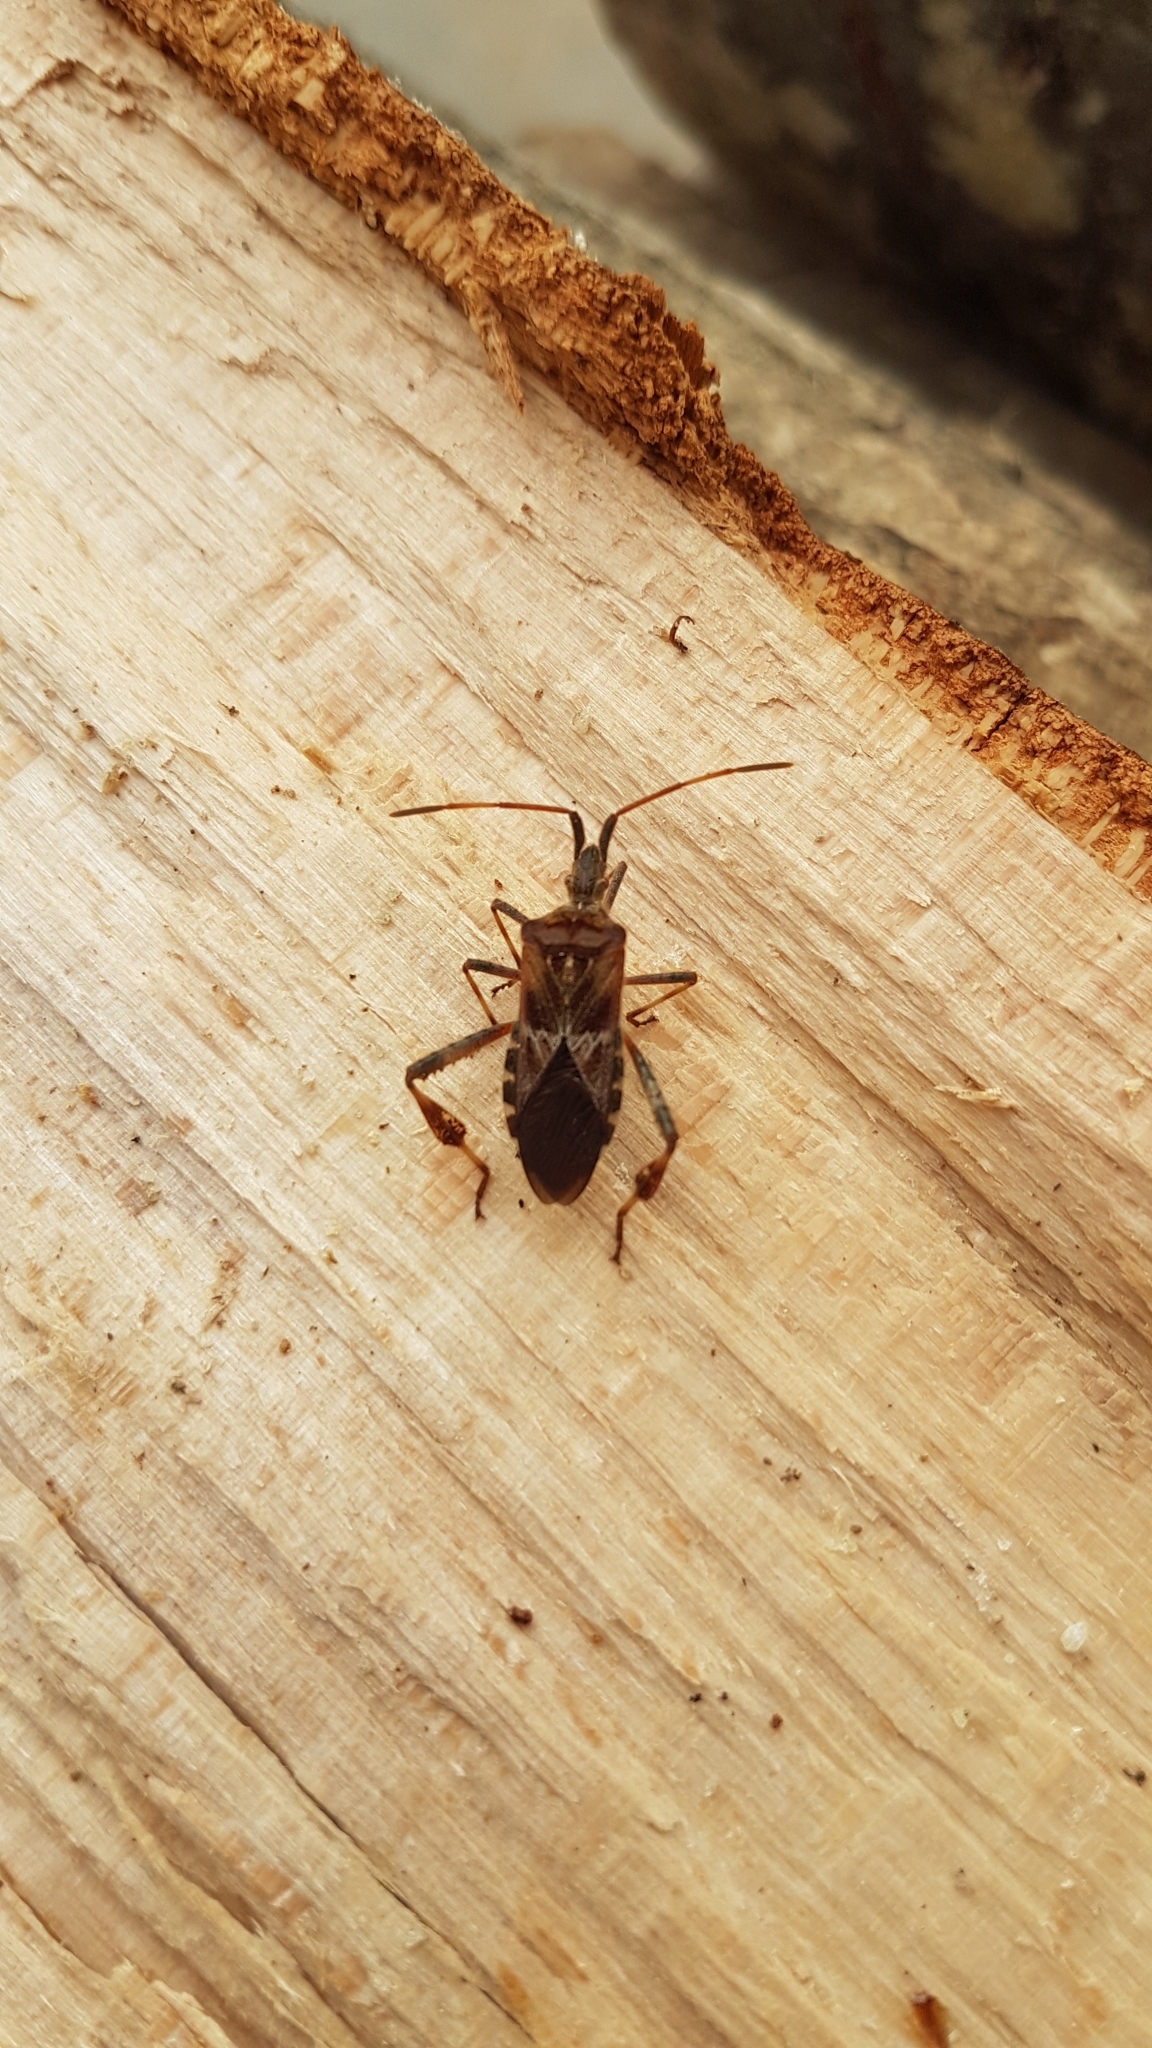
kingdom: Animalia
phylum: Arthropoda
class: Insecta
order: Hemiptera
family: Coreidae
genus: Leptoglossus
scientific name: Leptoglossus occidentalis
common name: Western conifer-seed bug
